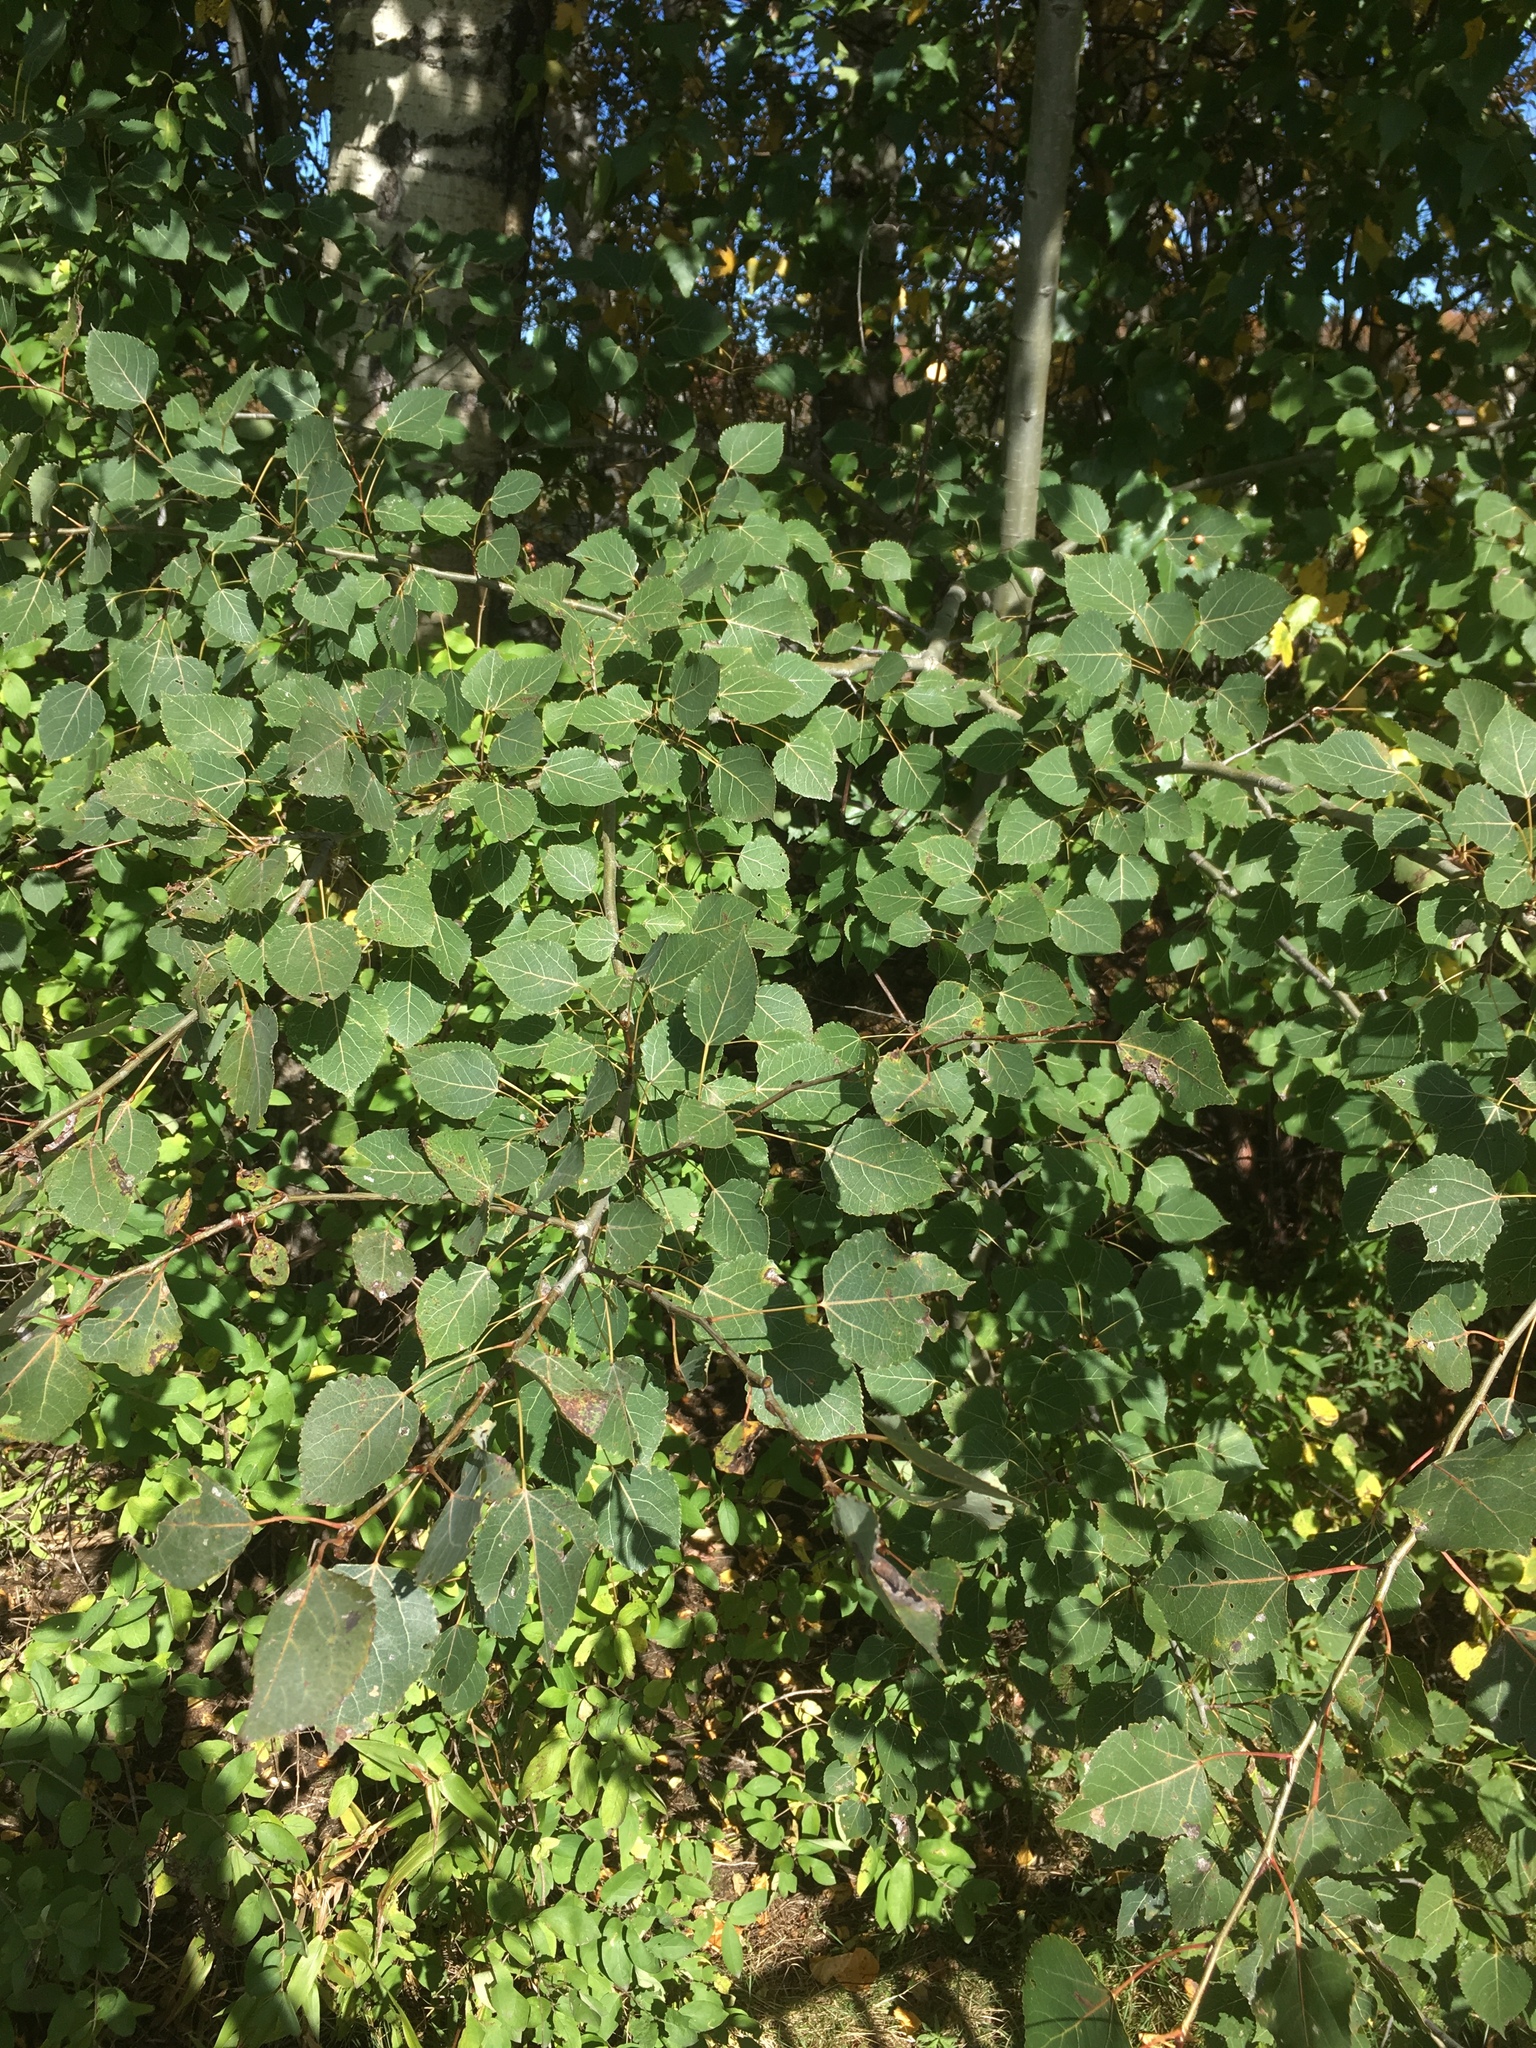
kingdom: Plantae
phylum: Tracheophyta
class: Magnoliopsida
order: Malpighiales
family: Salicaceae
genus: Populus
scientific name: Populus tremuloides
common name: Quaking aspen
